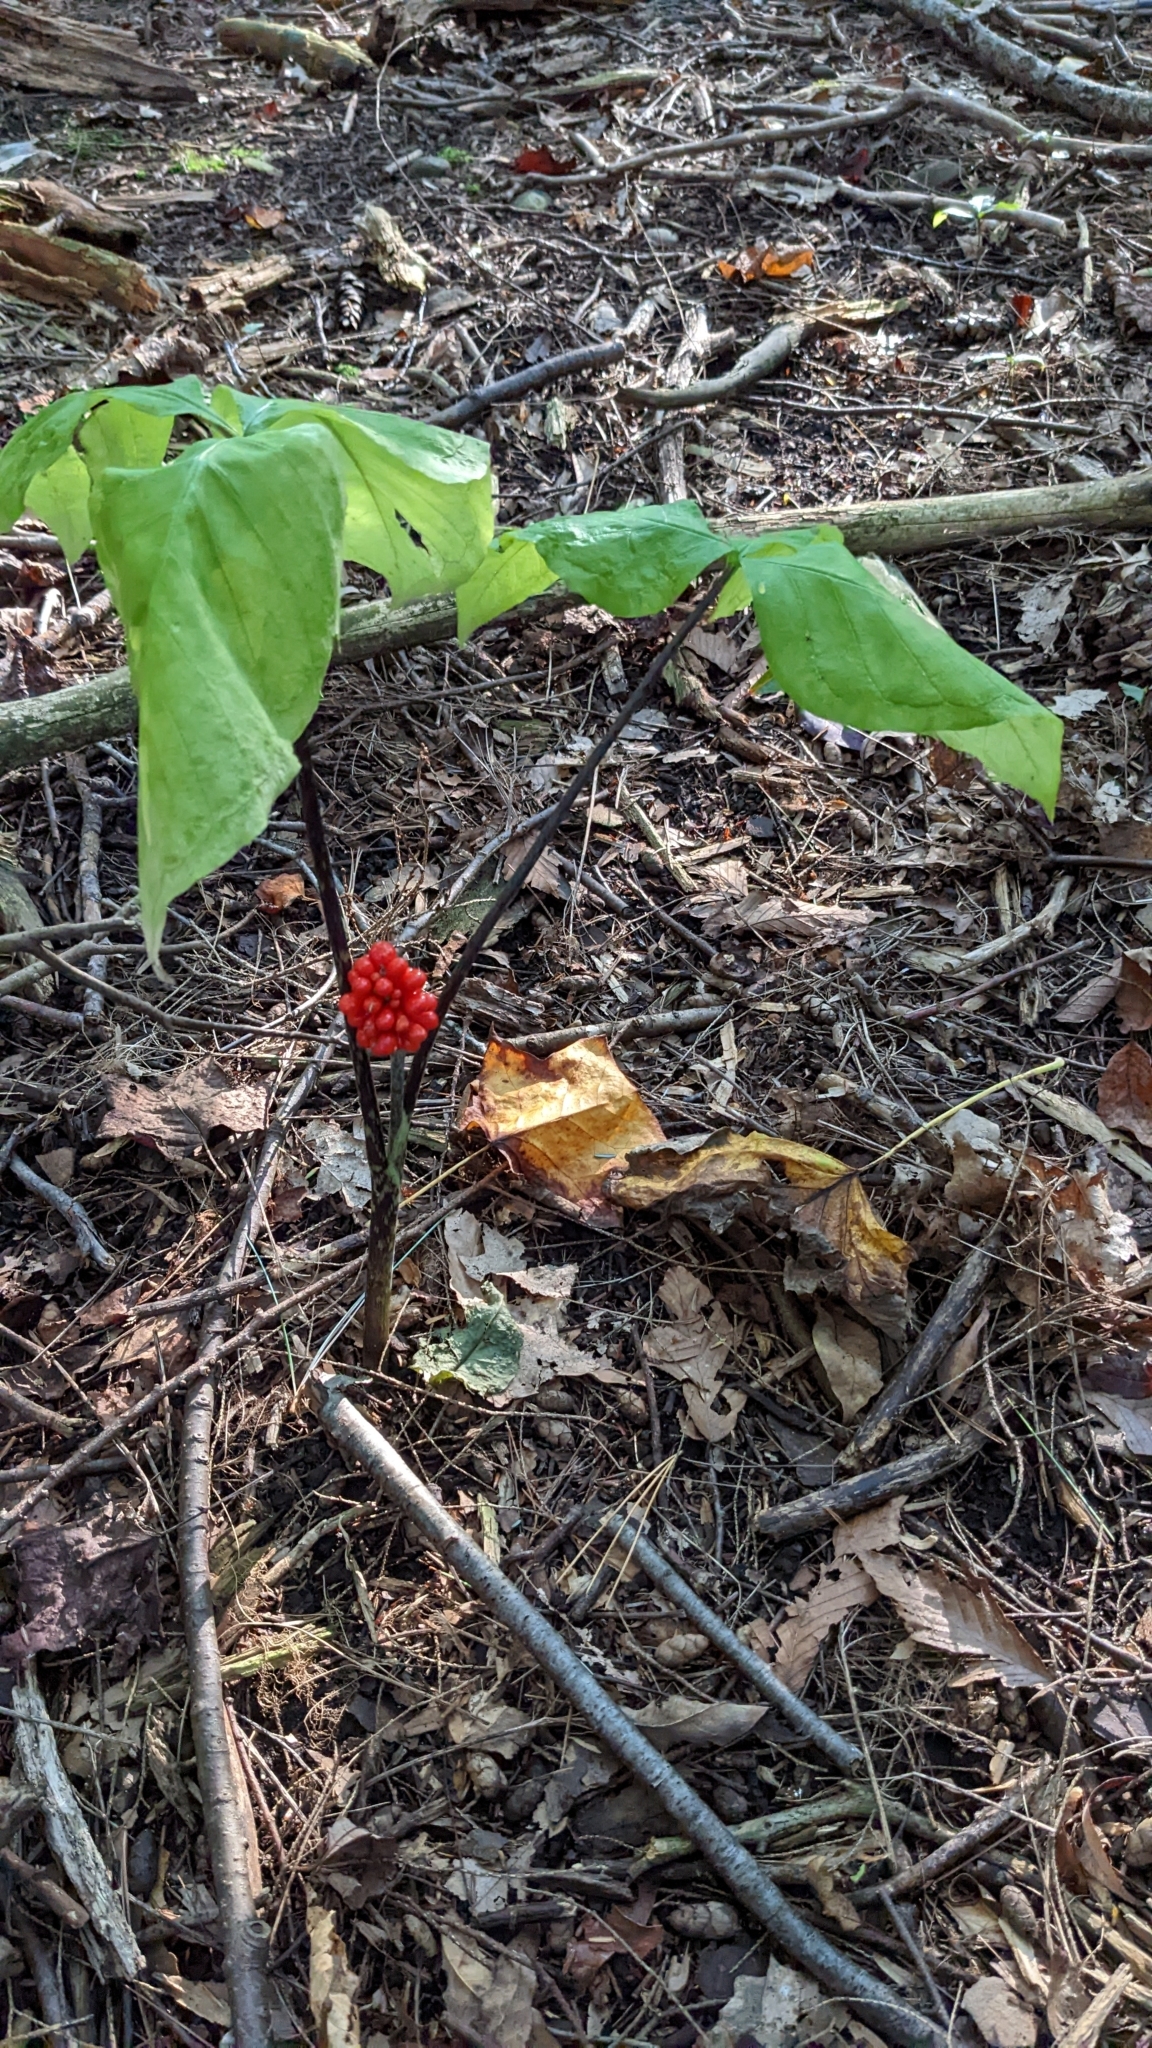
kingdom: Plantae
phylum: Tracheophyta
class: Liliopsida
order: Alismatales
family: Araceae
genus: Arisaema
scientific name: Arisaema triphyllum
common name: Jack-in-the-pulpit
